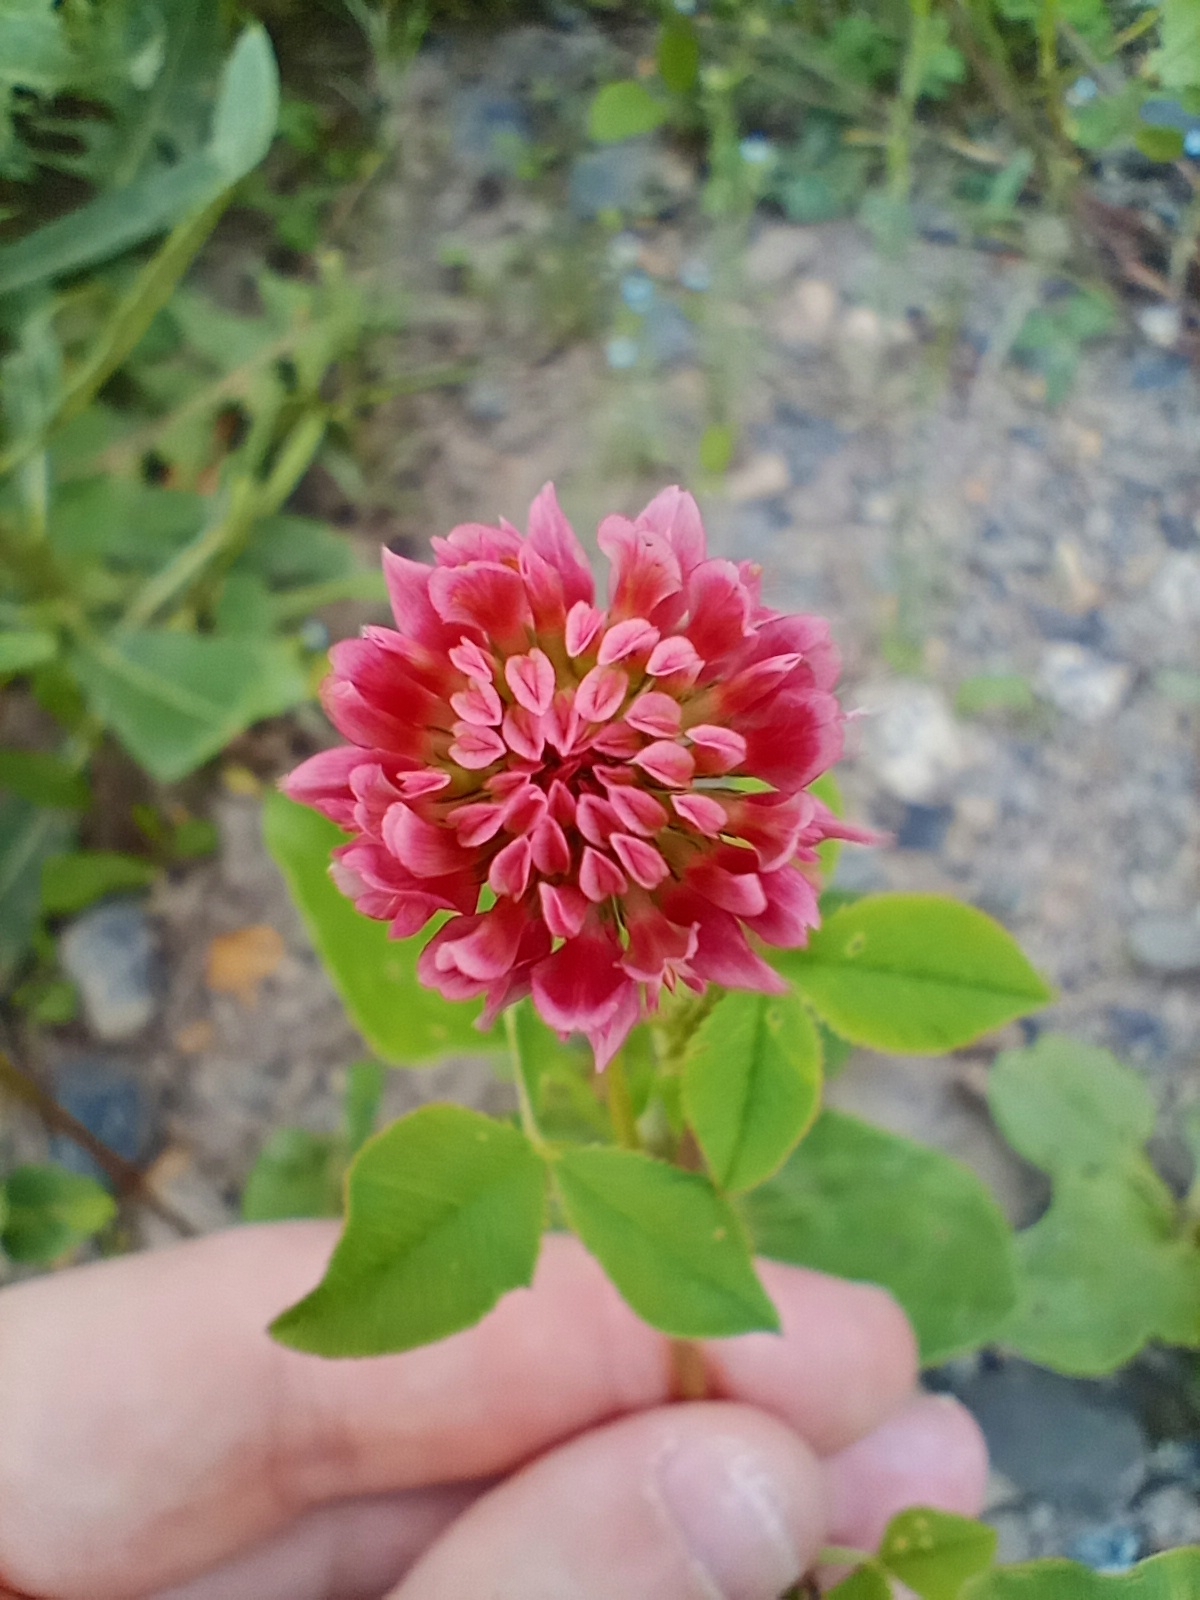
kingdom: Plantae
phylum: Tracheophyta
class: Magnoliopsida
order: Fabales
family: Fabaceae
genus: Trifolium
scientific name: Trifolium hybridum
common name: Alsike clover
